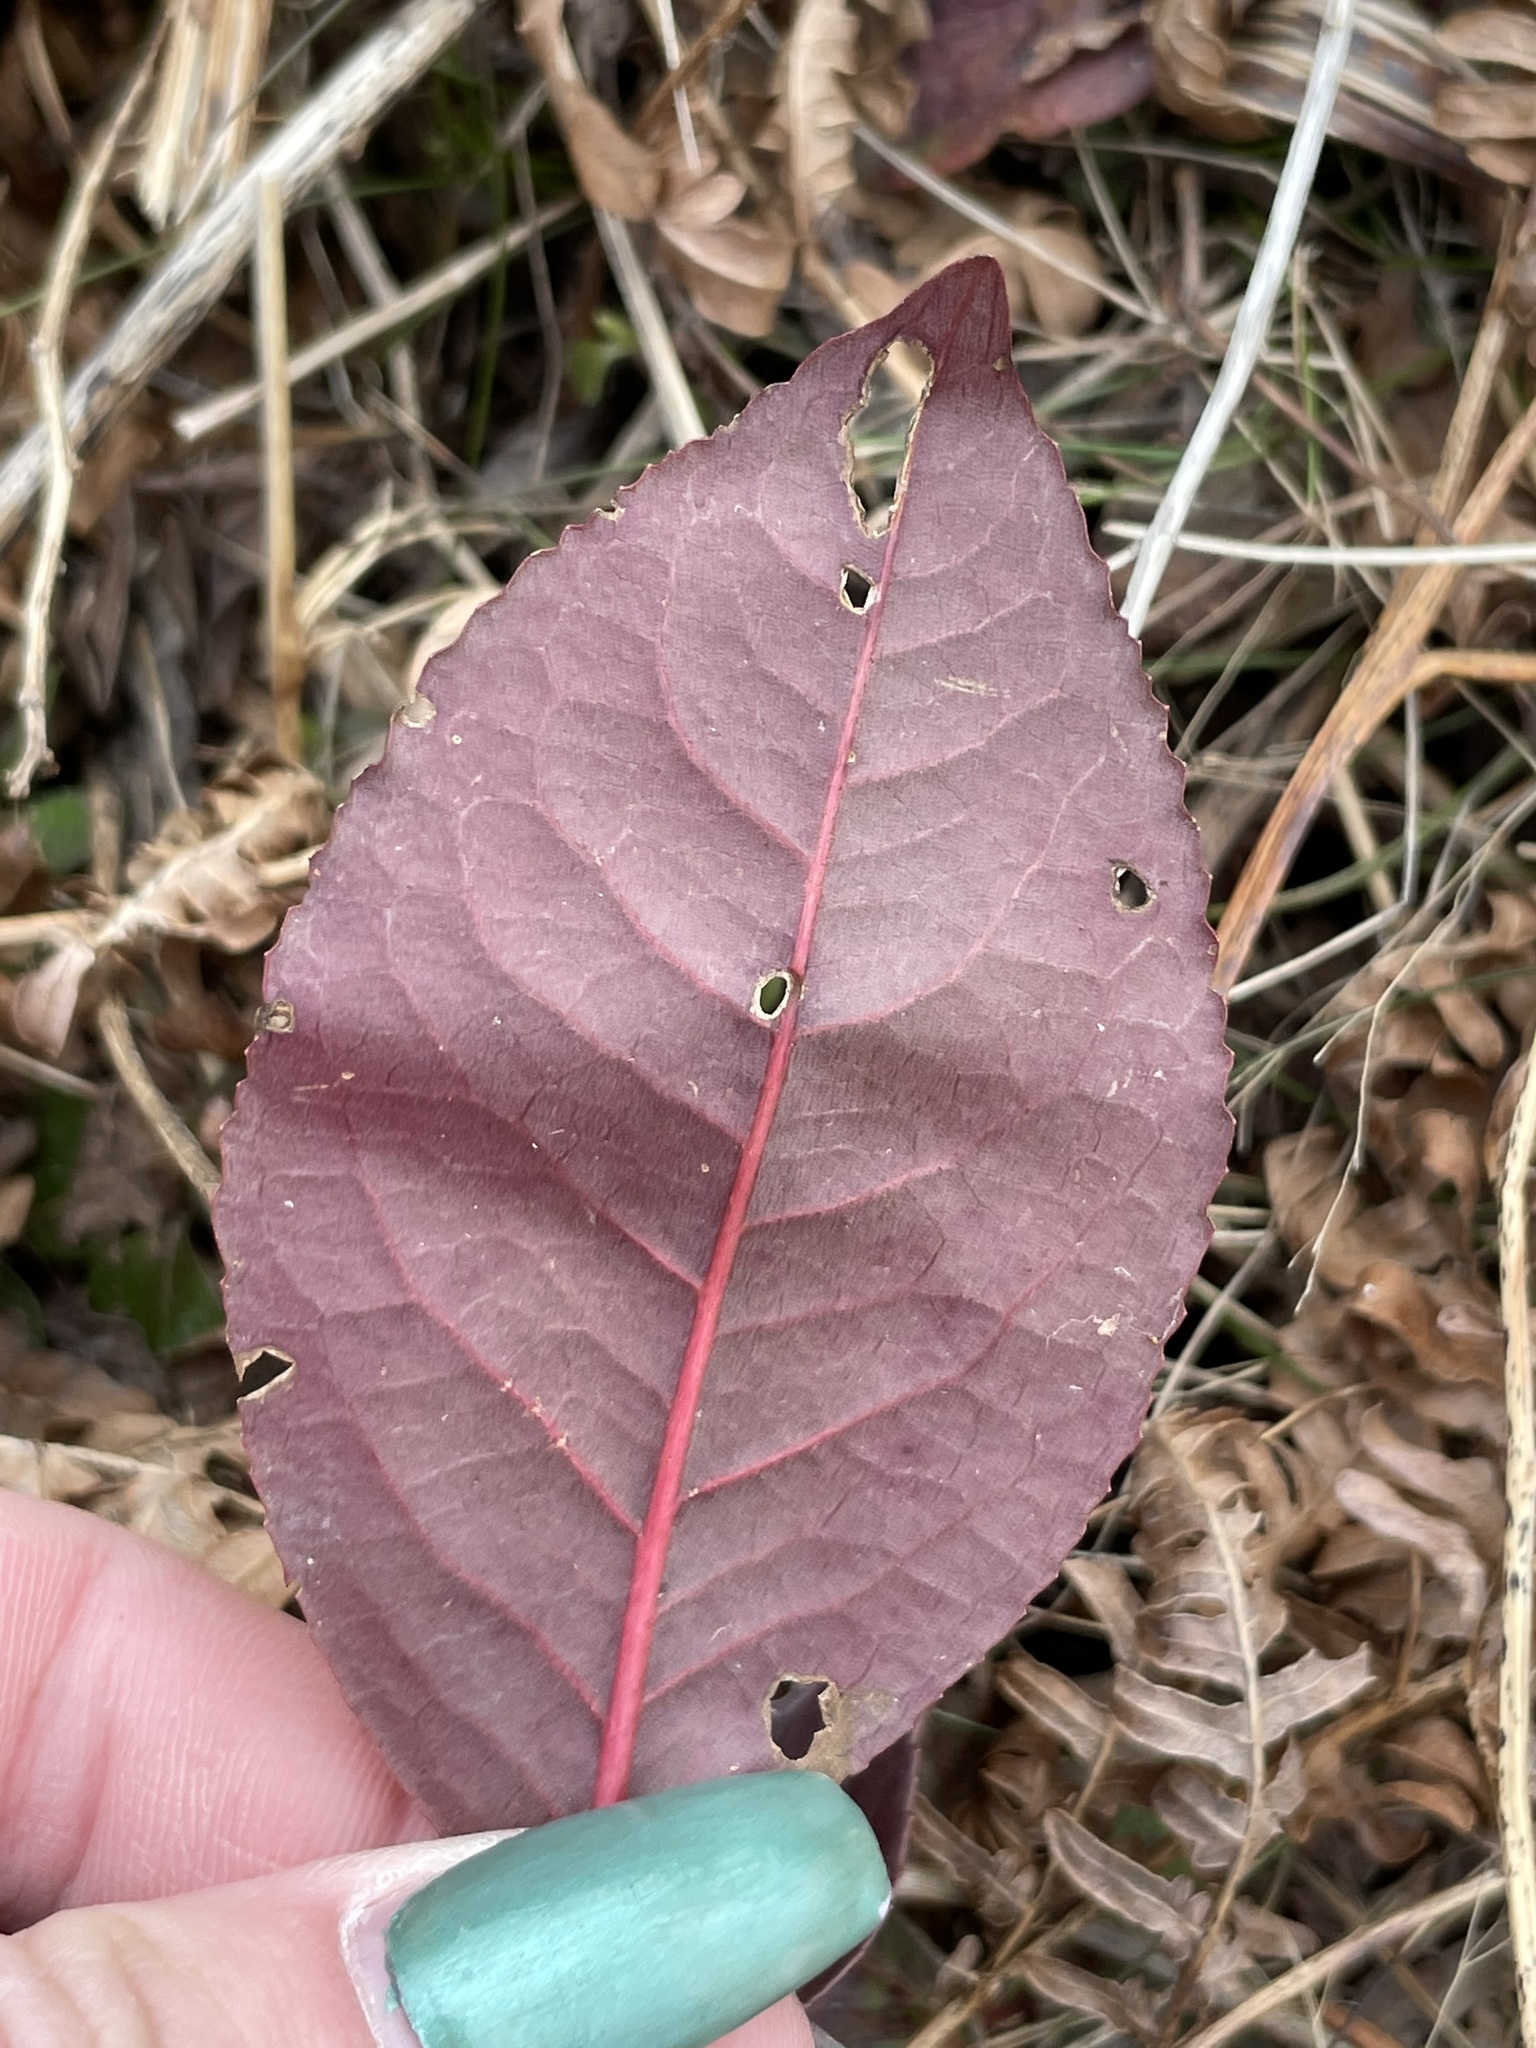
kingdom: Plantae
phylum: Tracheophyta
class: Magnoliopsida
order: Dipsacales
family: Viburnaceae
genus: Viburnum
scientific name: Viburnum cassinoides
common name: Swamp haw
